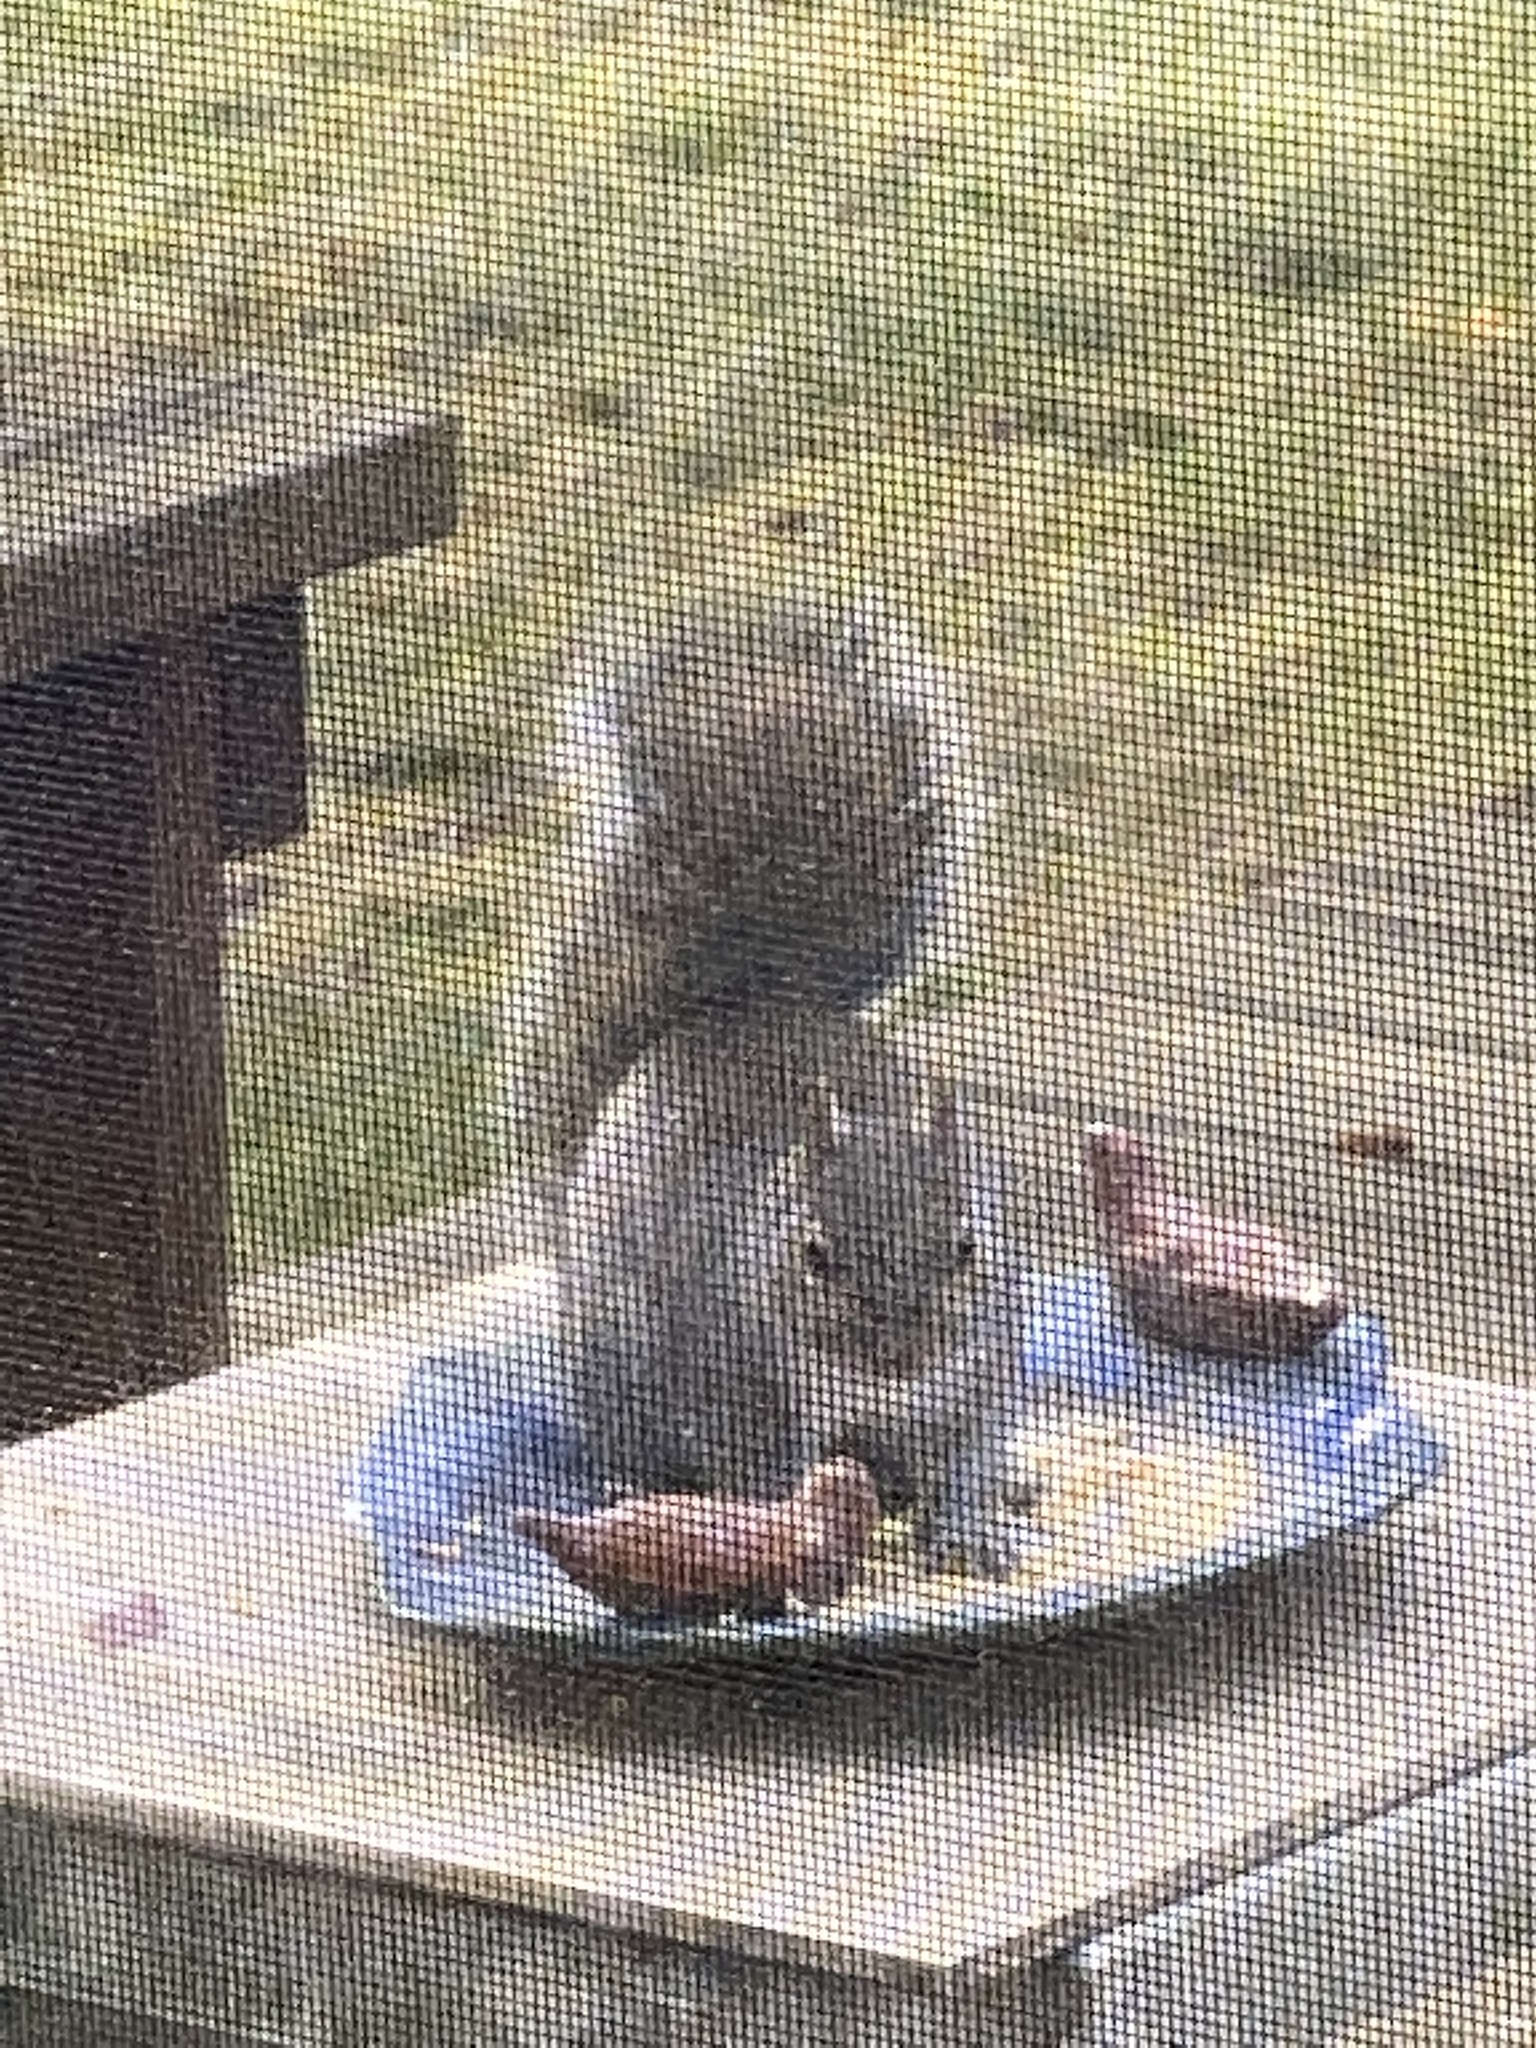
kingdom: Animalia
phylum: Chordata
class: Mammalia
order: Rodentia
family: Sciuridae
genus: Sciurus
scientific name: Sciurus carolinensis
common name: Eastern gray squirrel
